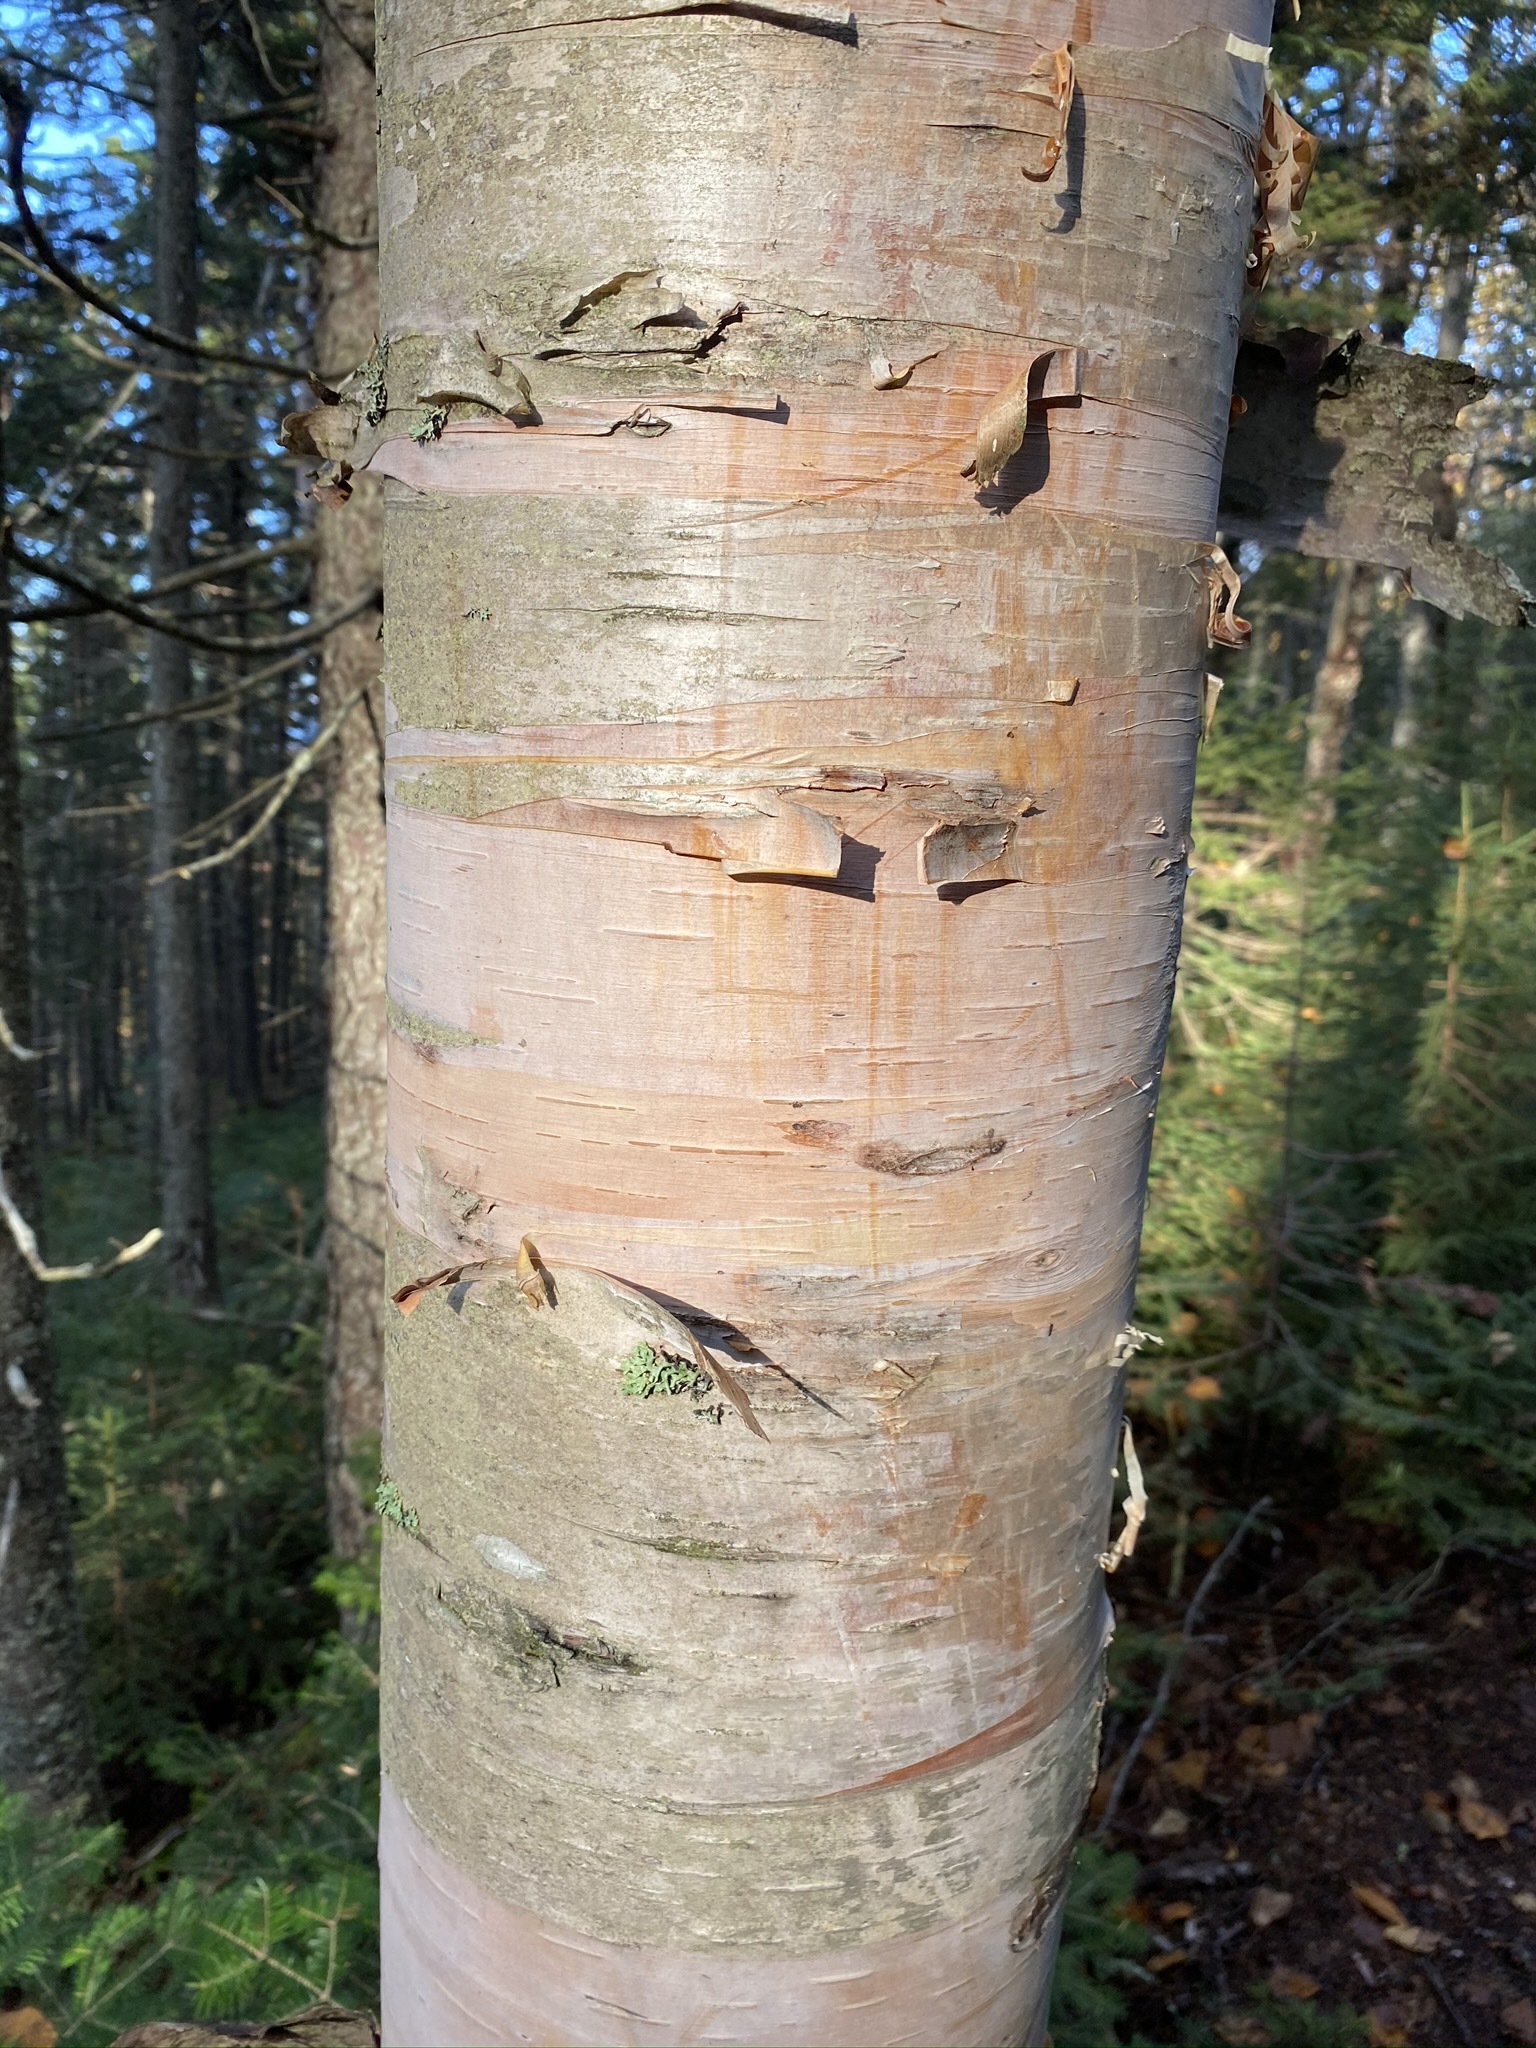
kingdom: Plantae
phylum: Tracheophyta
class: Magnoliopsida
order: Fagales
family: Betulaceae
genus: Betula
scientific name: Betula papyrifera
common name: Paper birch
